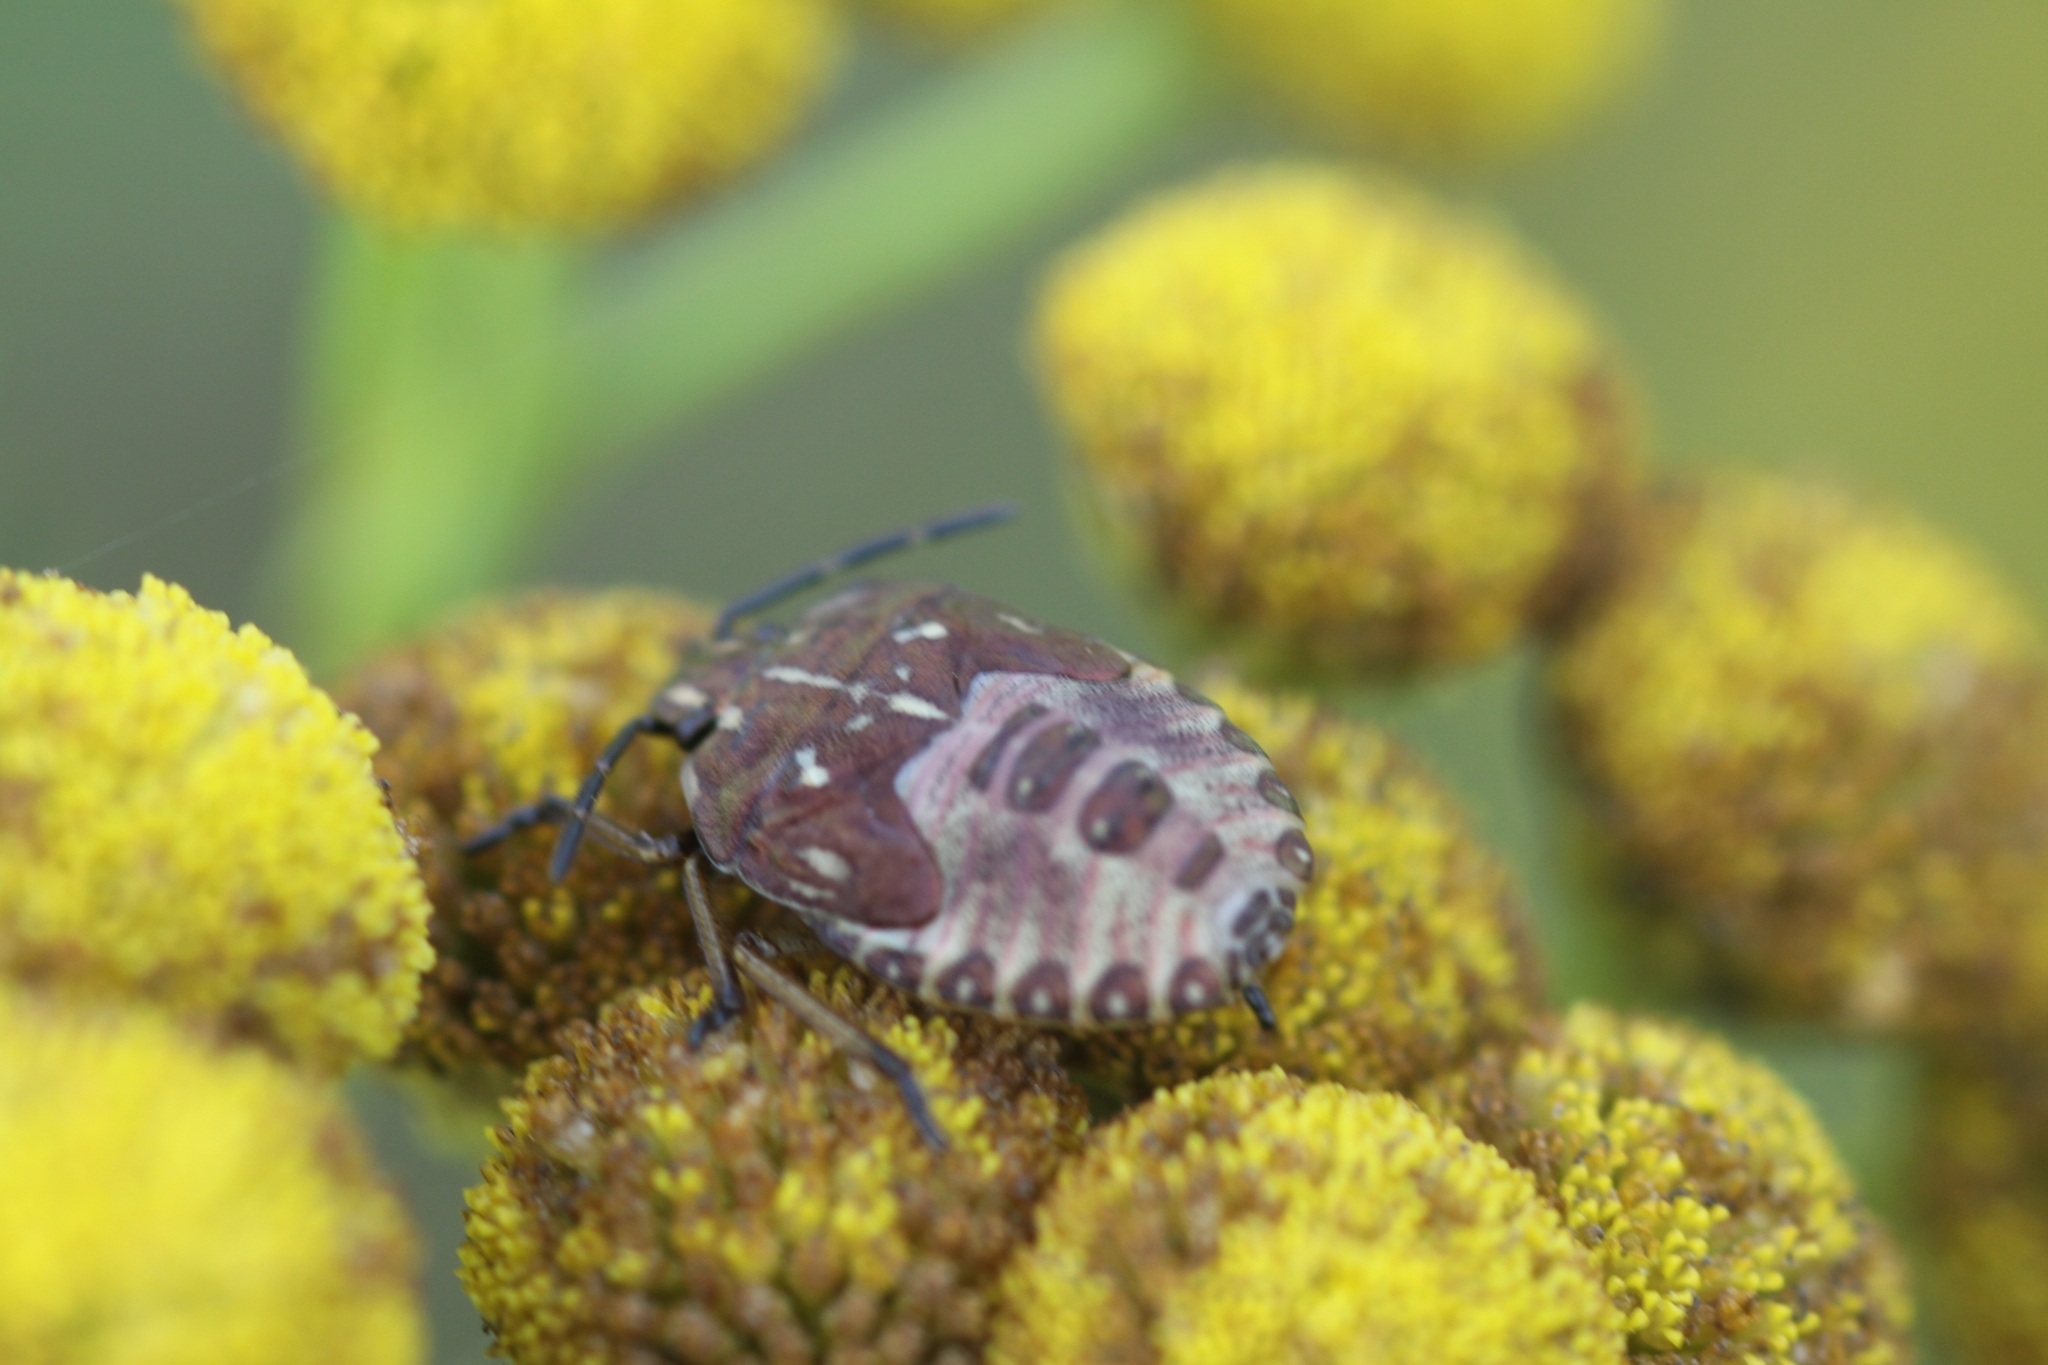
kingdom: Animalia
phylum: Arthropoda
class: Insecta
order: Hemiptera
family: Pentatomidae
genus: Carpocoris
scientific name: Carpocoris purpureipennis
